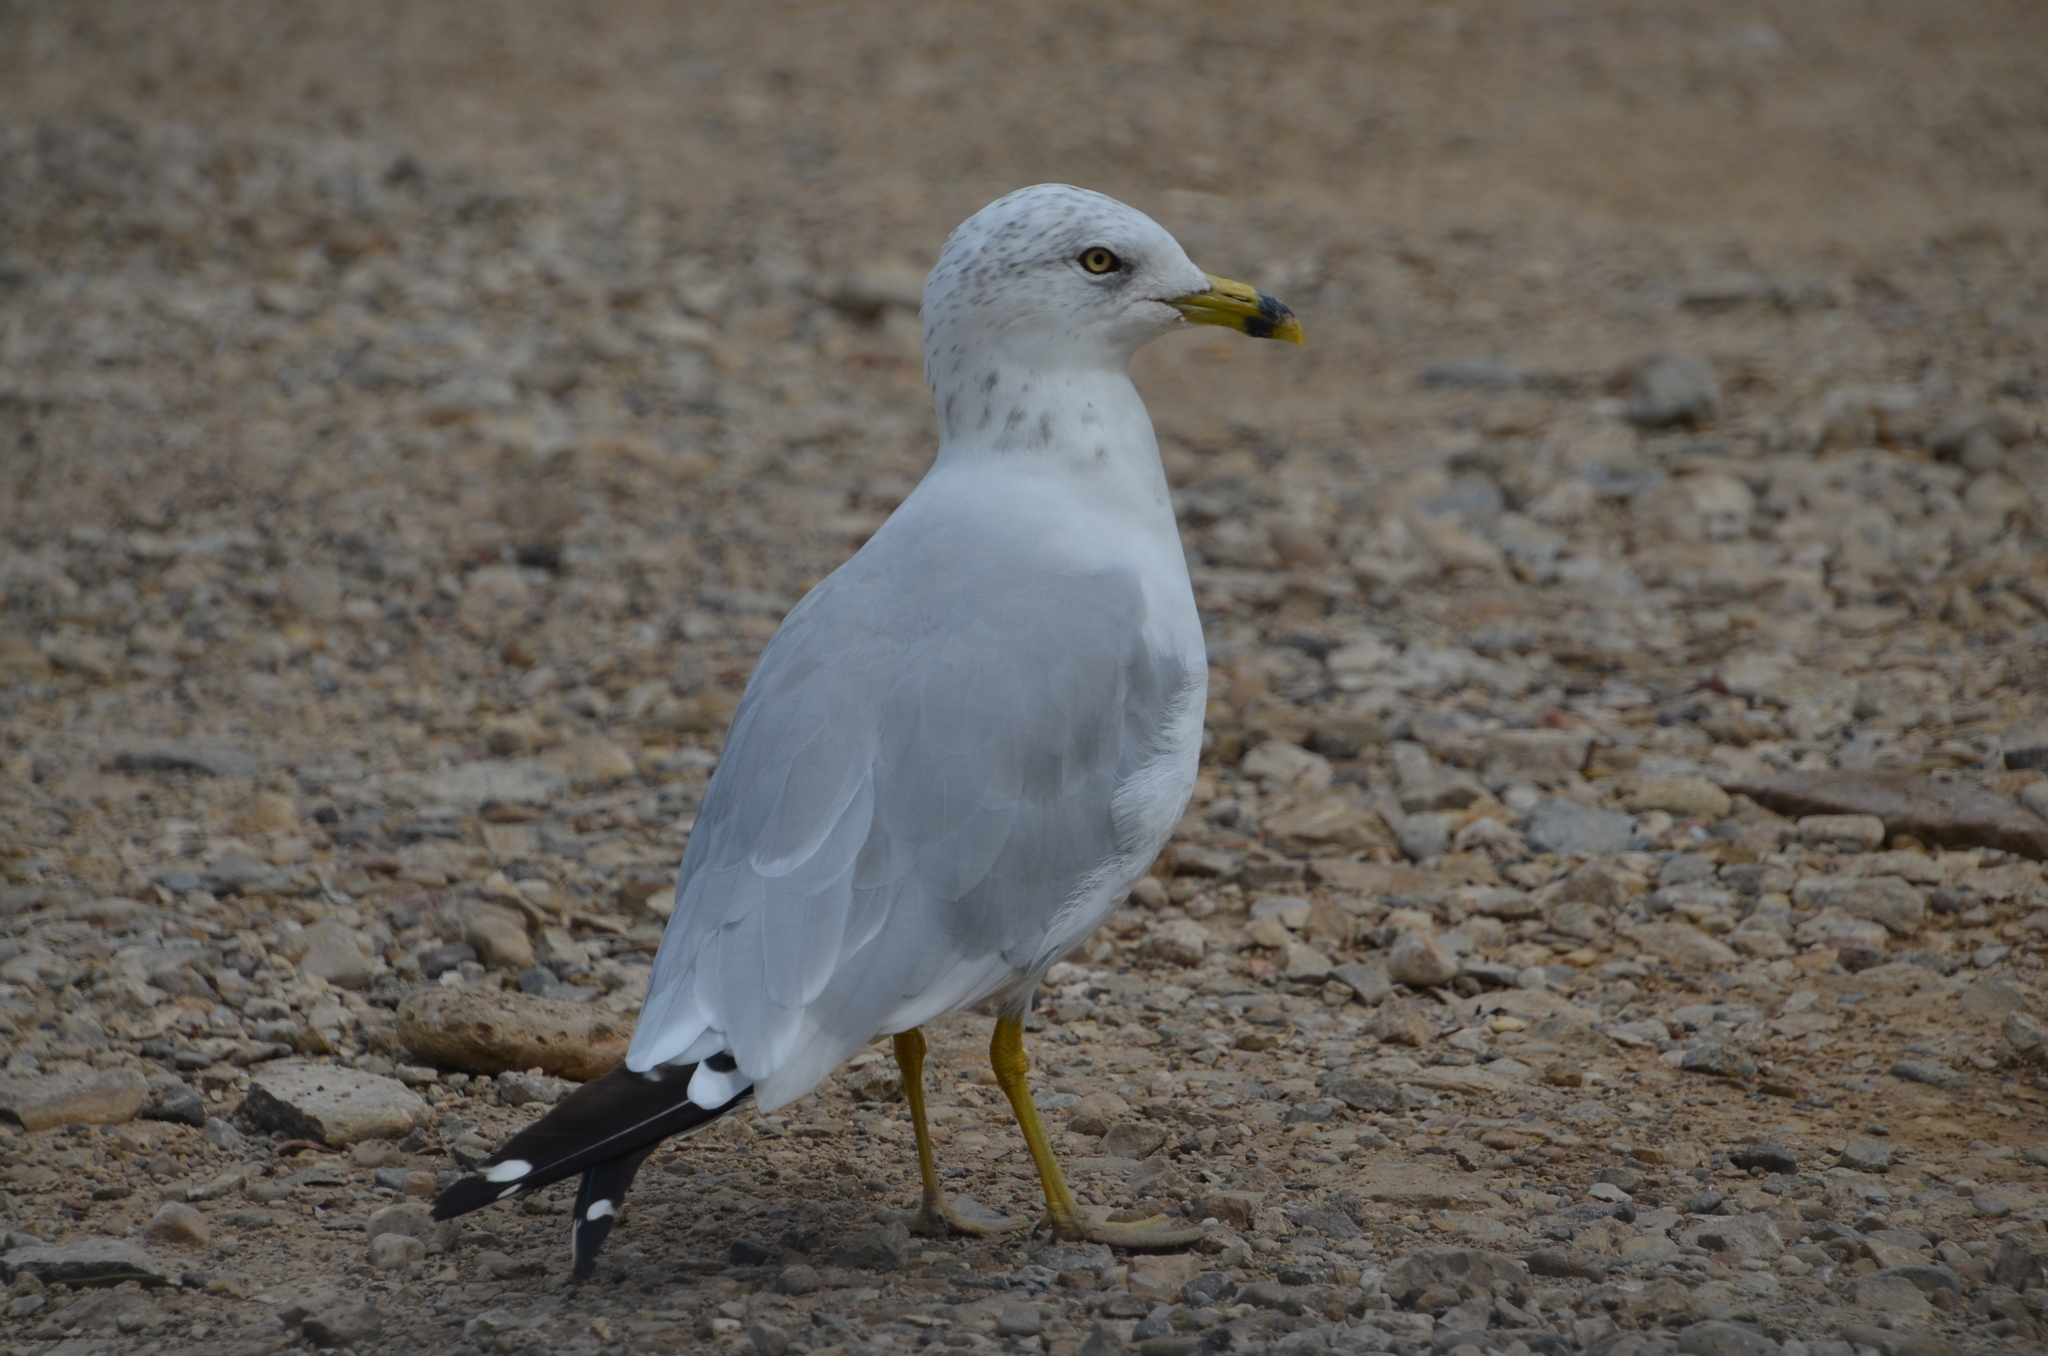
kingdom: Animalia
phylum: Chordata
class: Aves
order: Charadriiformes
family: Laridae
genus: Larus
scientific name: Larus delawarensis
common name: Ring-billed gull
